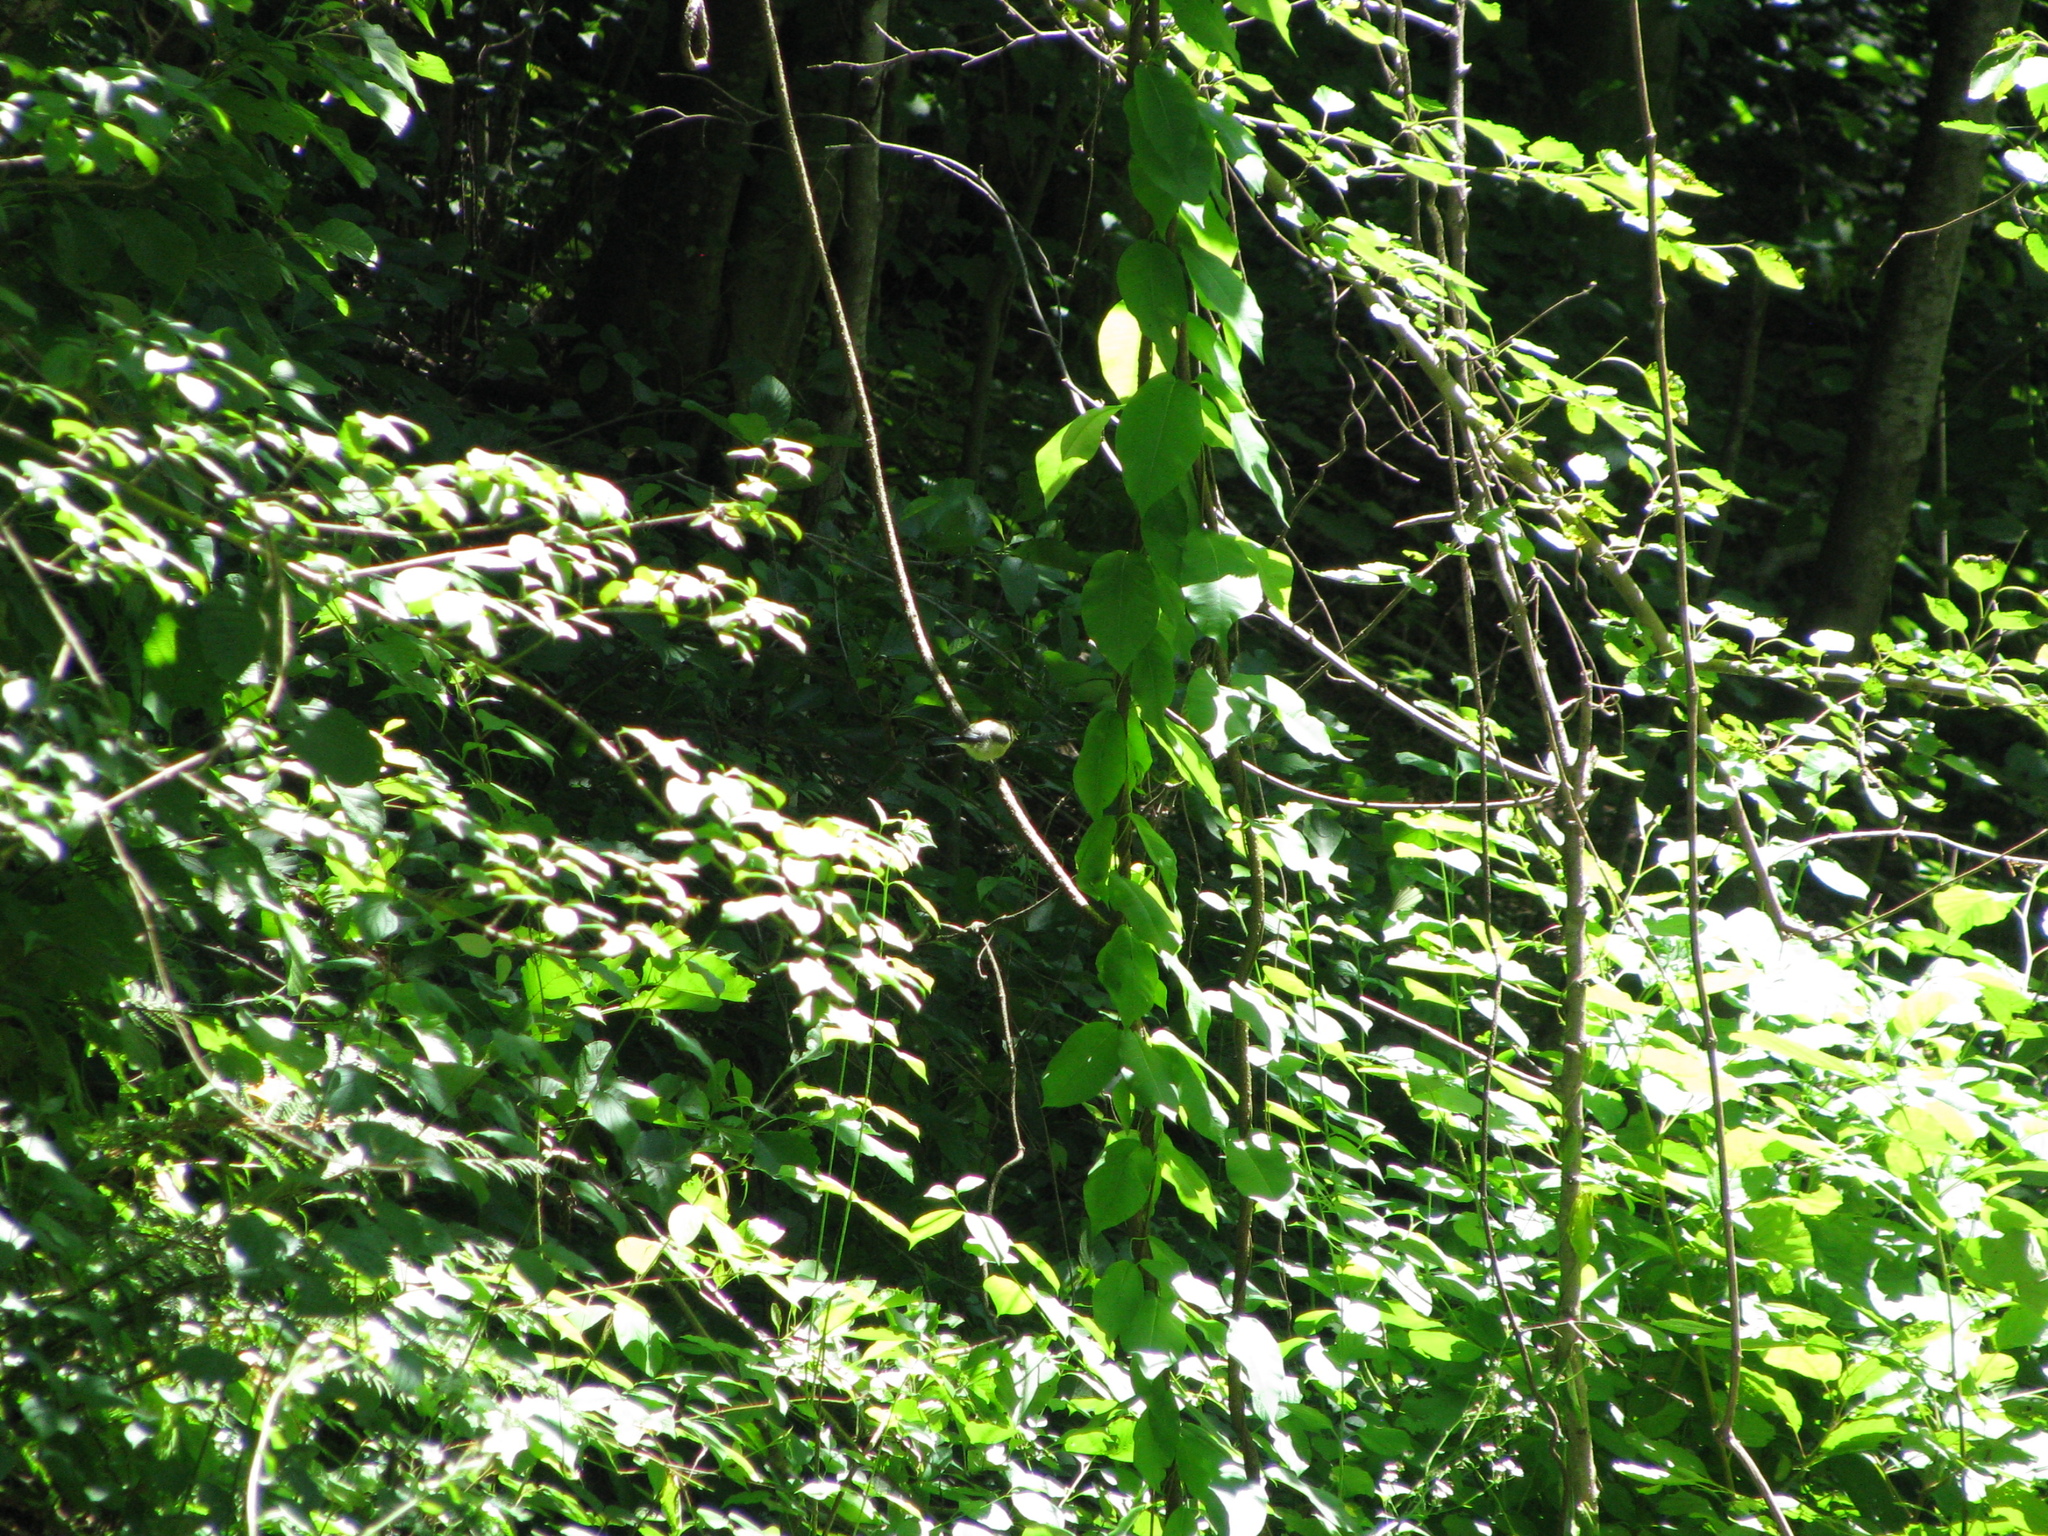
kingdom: Animalia
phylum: Chordata
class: Aves
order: Passeriformes
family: Paridae
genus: Cyanistes
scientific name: Cyanistes caeruleus
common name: Eurasian blue tit
